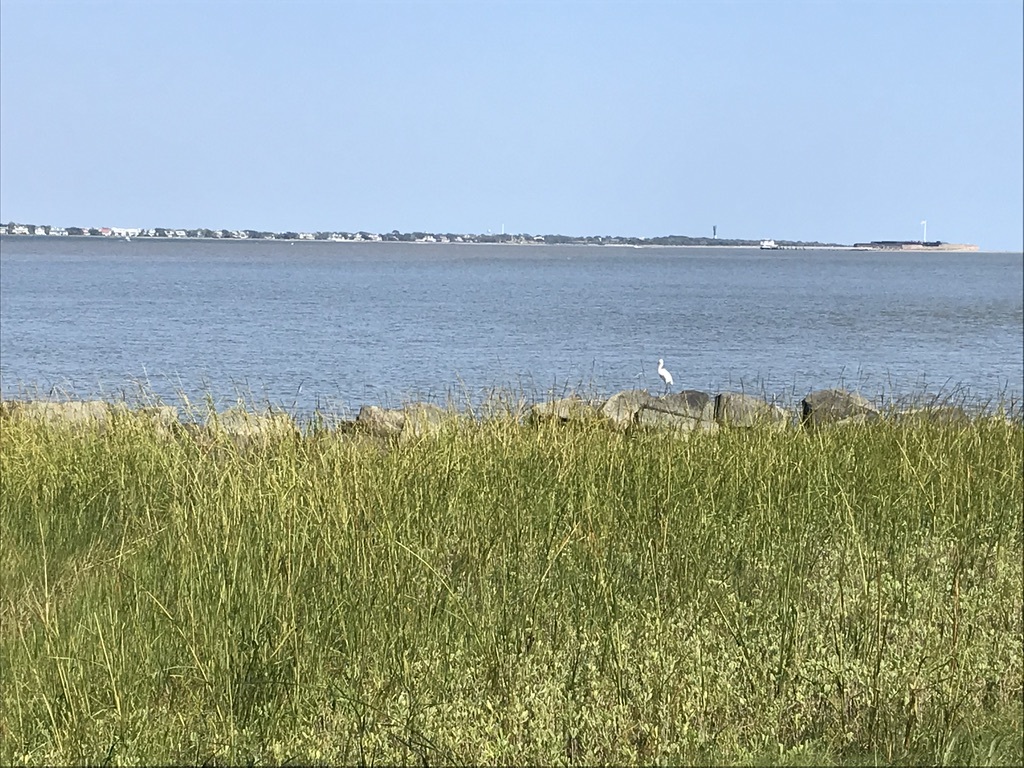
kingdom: Animalia
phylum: Chordata
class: Aves
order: Pelecaniformes
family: Ardeidae
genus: Egretta
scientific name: Egretta thula
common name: Snowy egret
